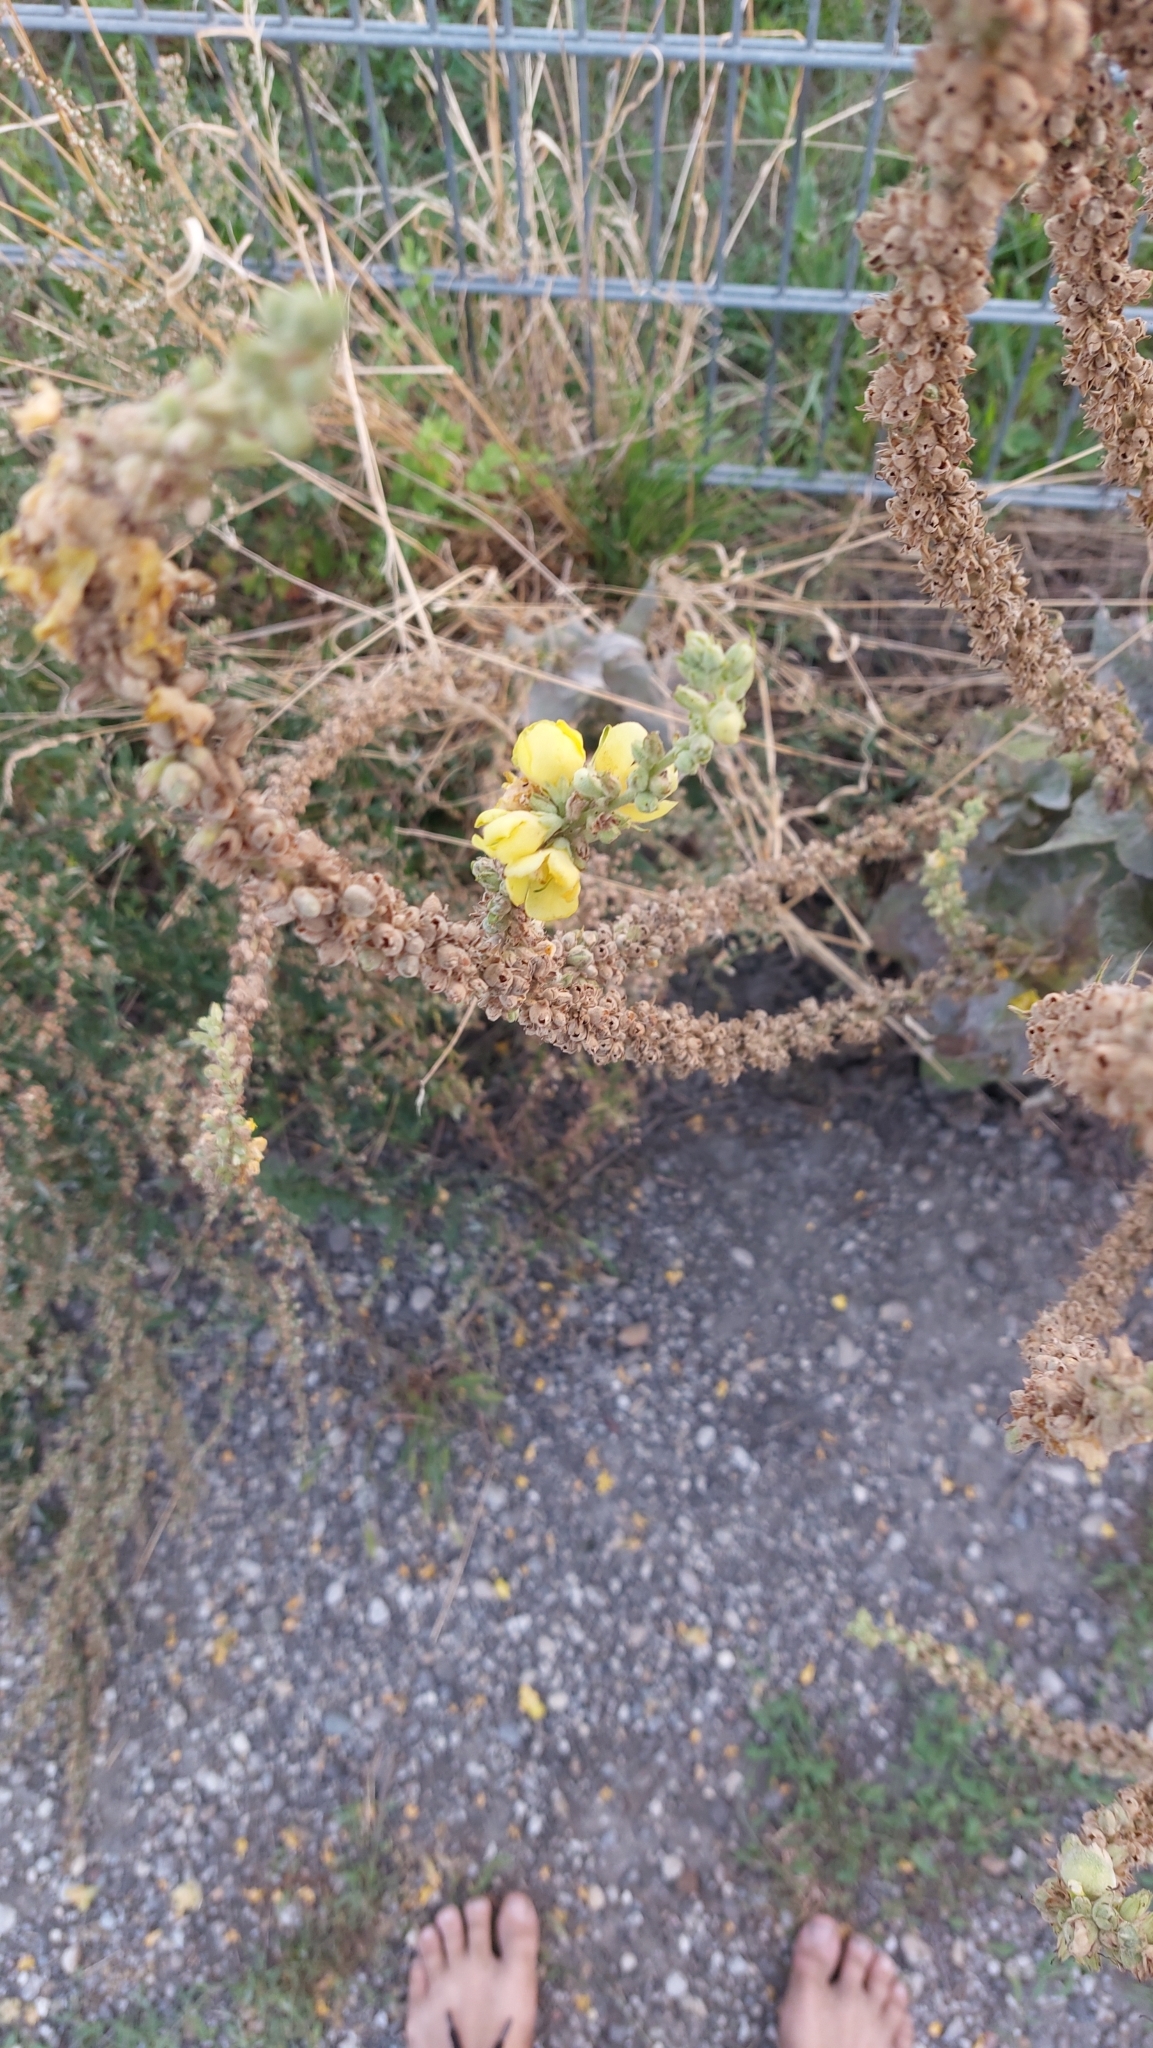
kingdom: Plantae
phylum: Tracheophyta
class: Magnoliopsida
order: Lamiales
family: Scrophulariaceae
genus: Verbascum
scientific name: Verbascum
